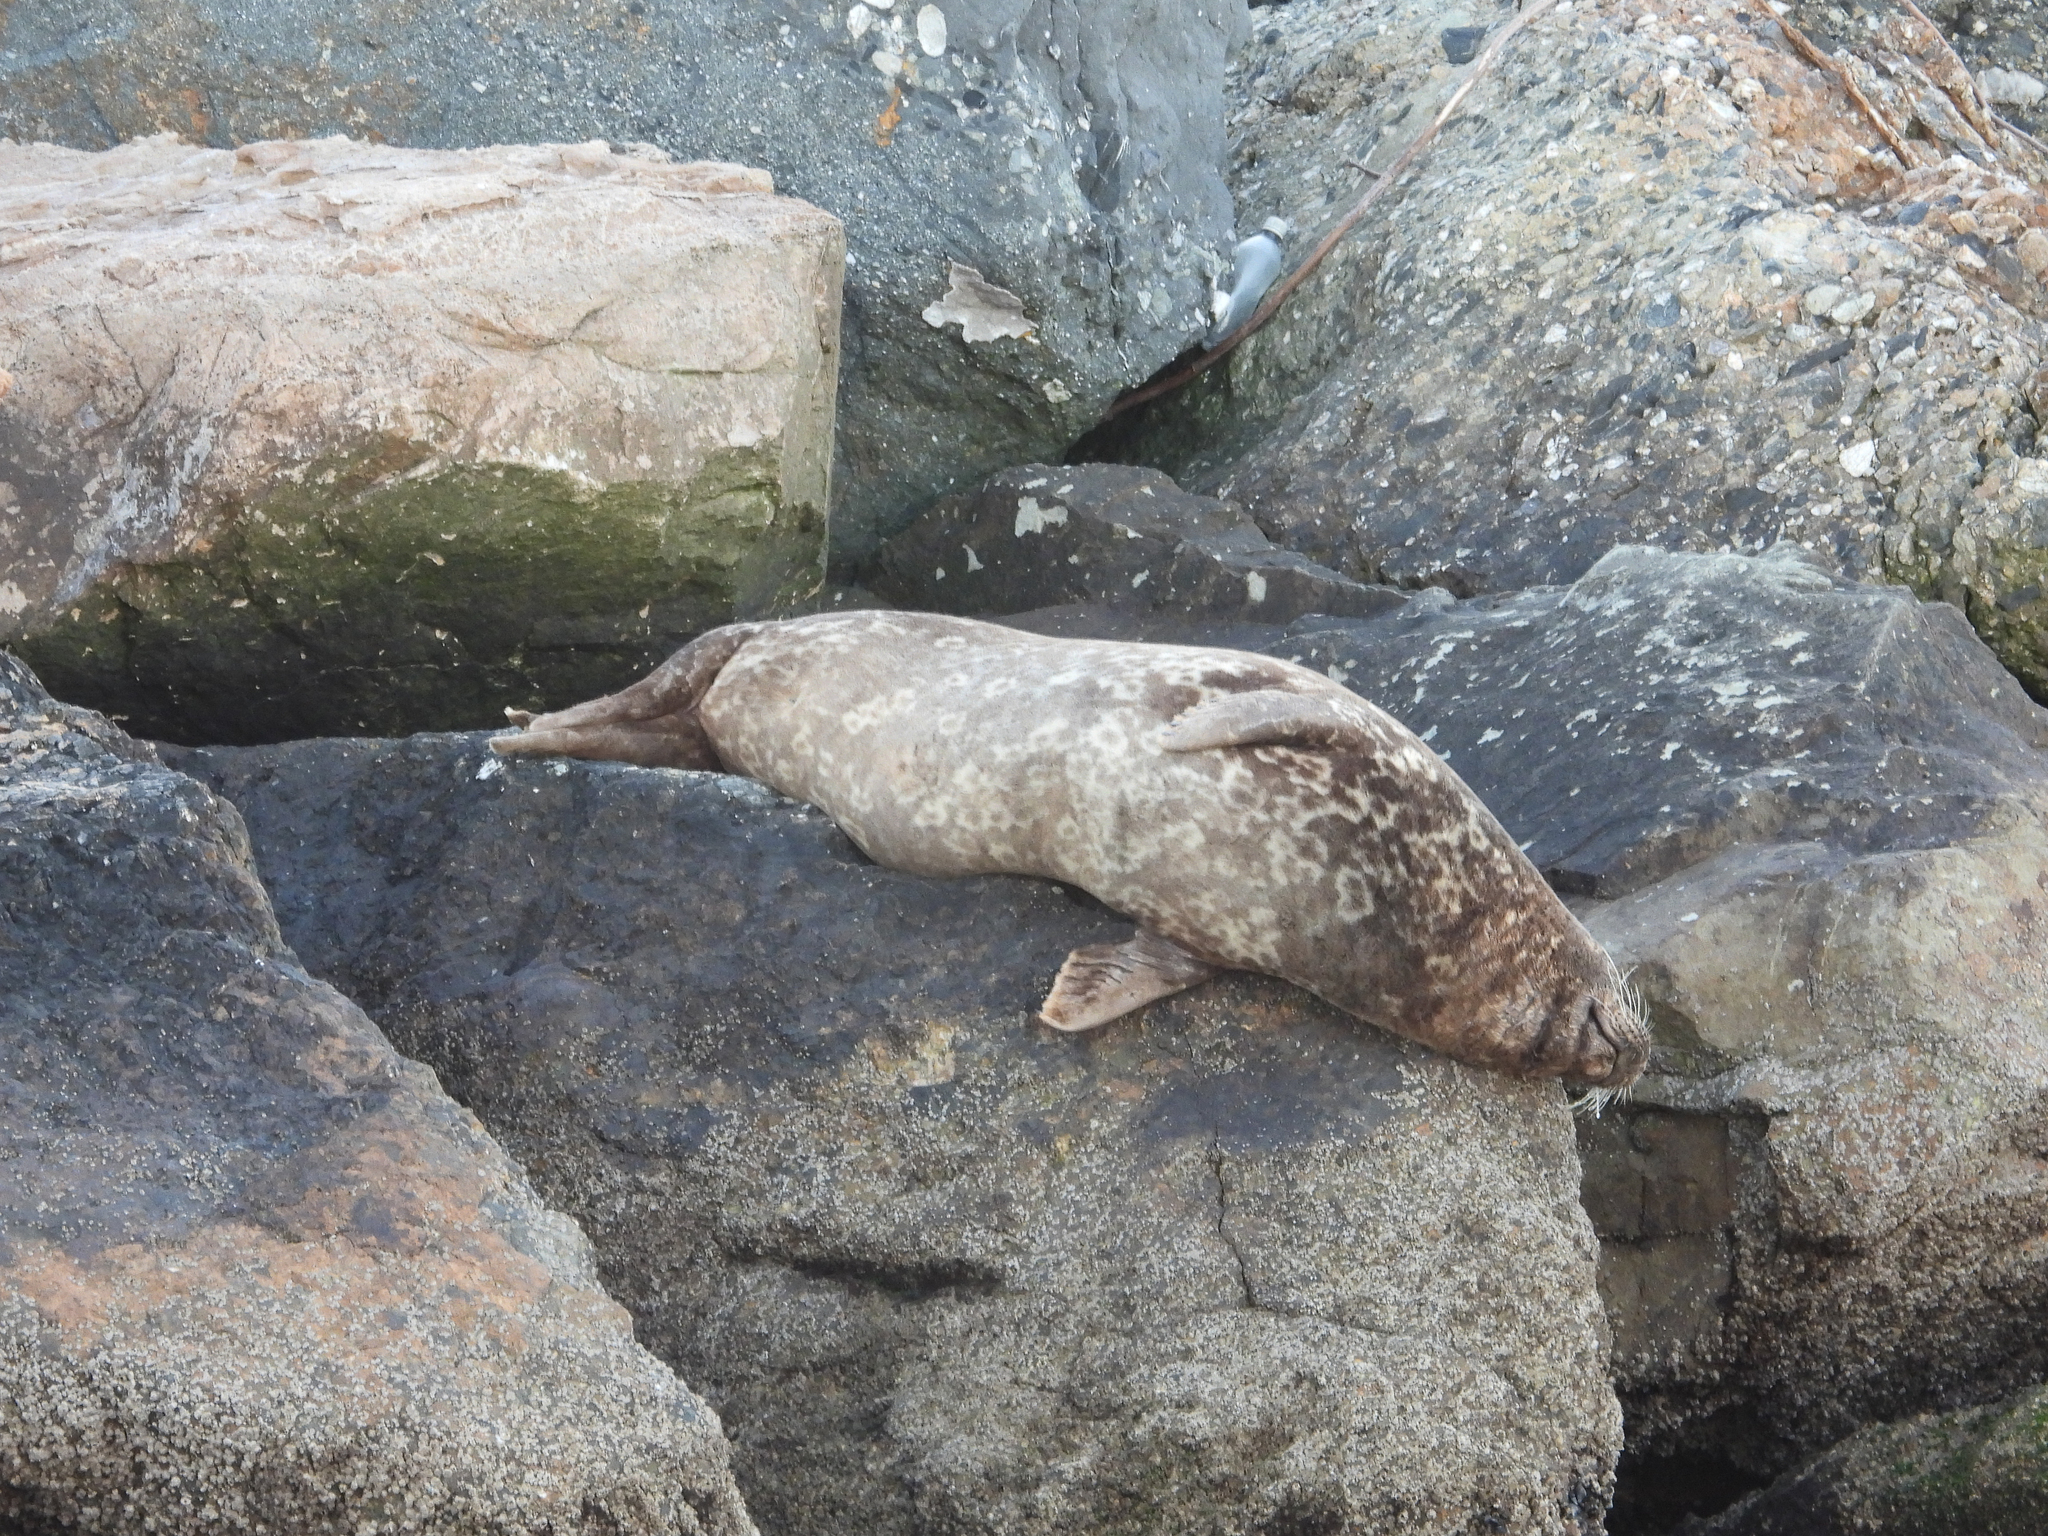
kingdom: Animalia
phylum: Chordata
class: Mammalia
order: Carnivora
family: Phocidae
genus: Phoca
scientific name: Phoca vitulina
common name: Harbor seal
